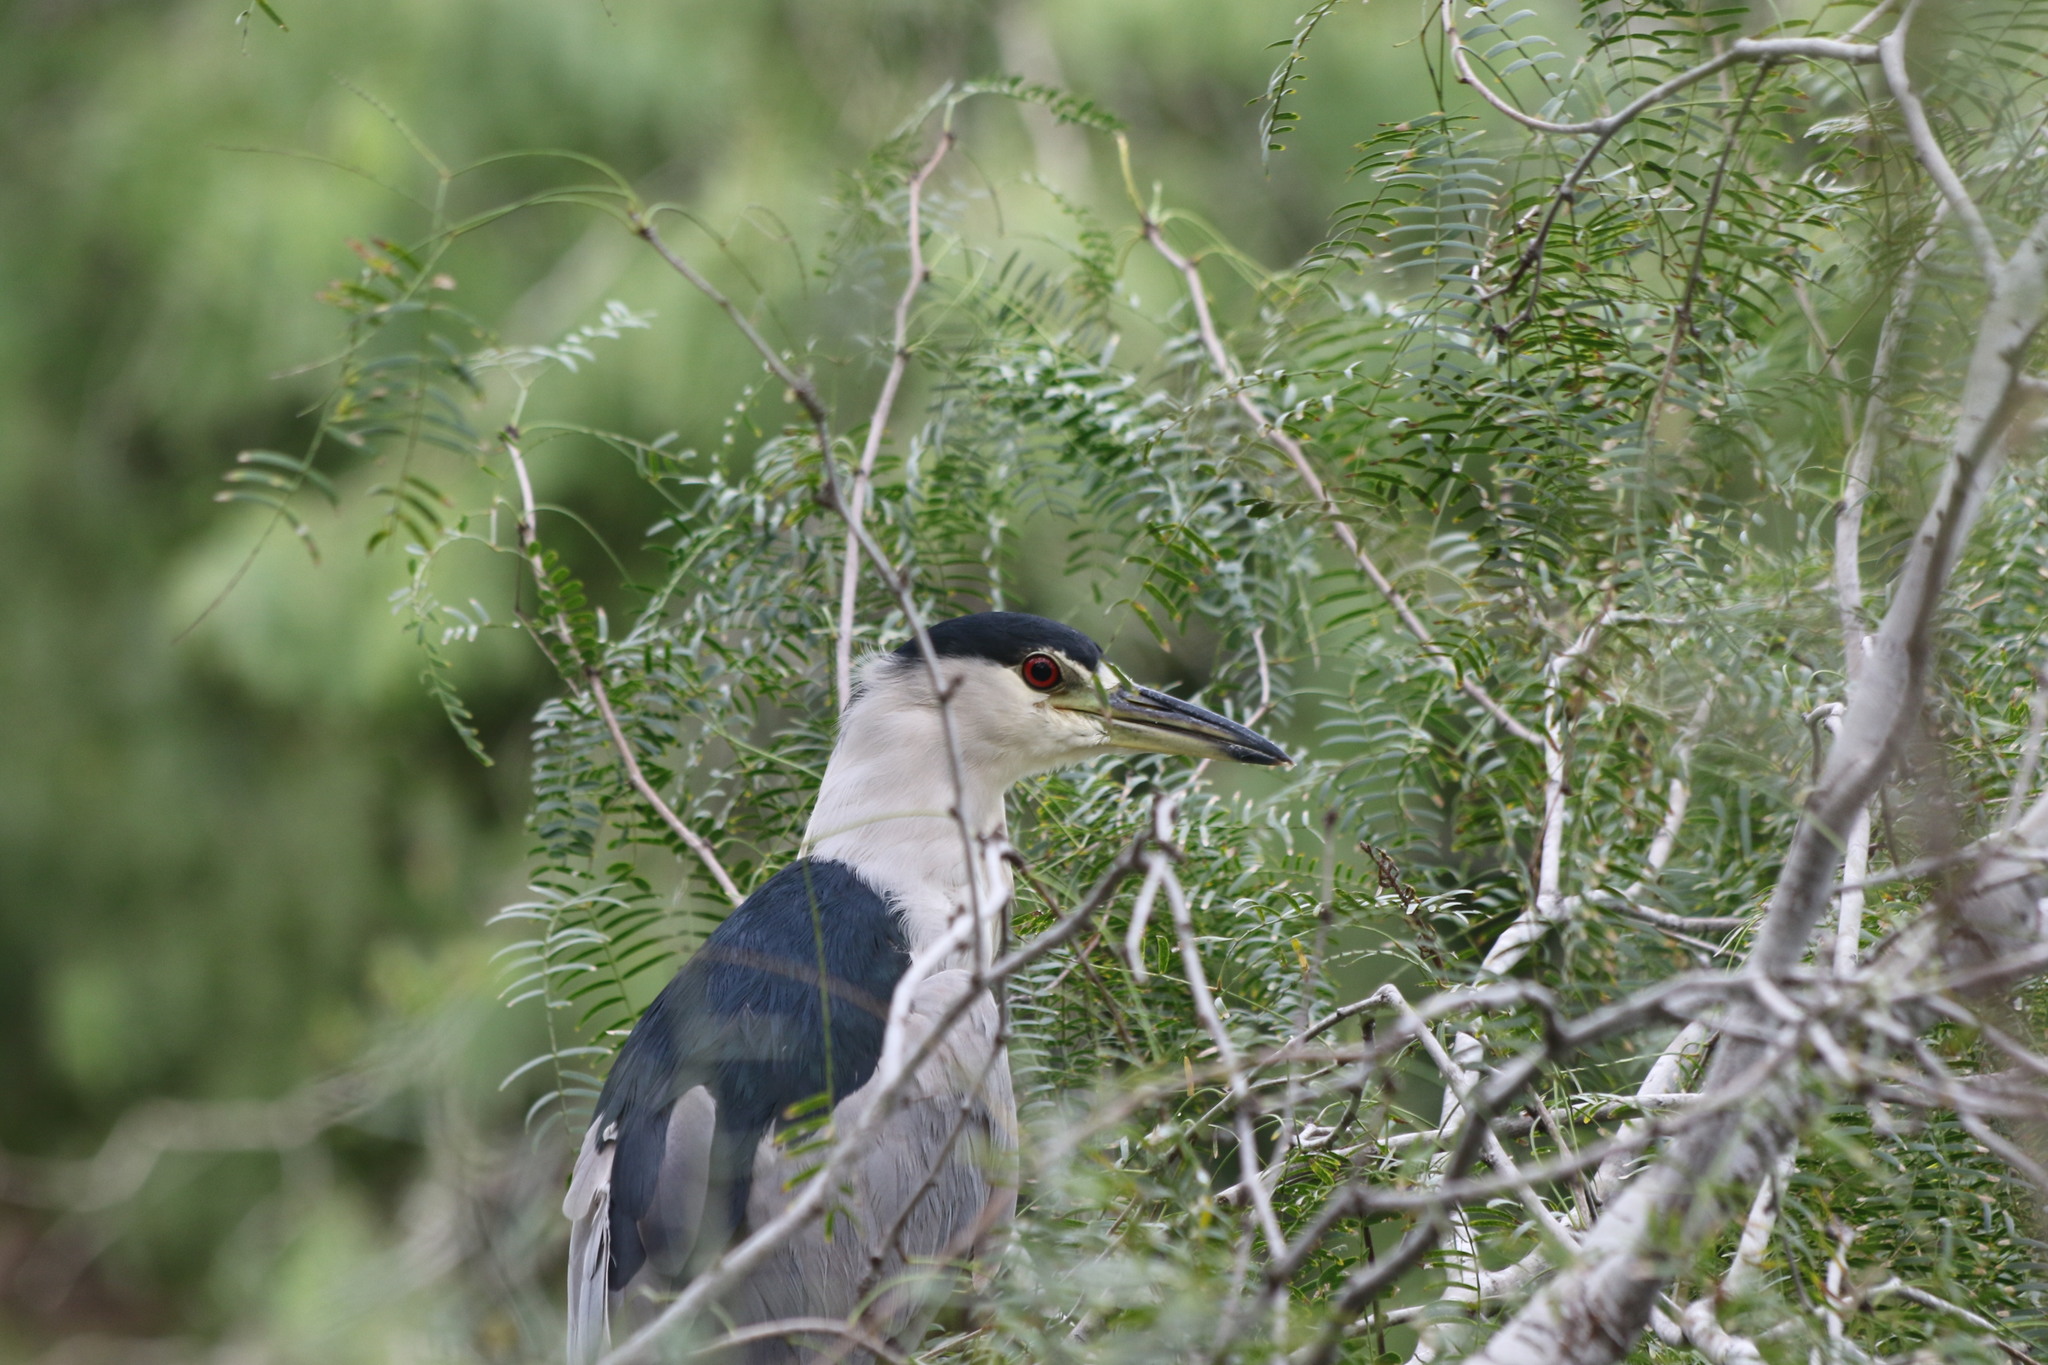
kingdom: Animalia
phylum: Chordata
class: Aves
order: Pelecaniformes
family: Ardeidae
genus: Nycticorax
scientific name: Nycticorax nycticorax
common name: Black-crowned night heron
